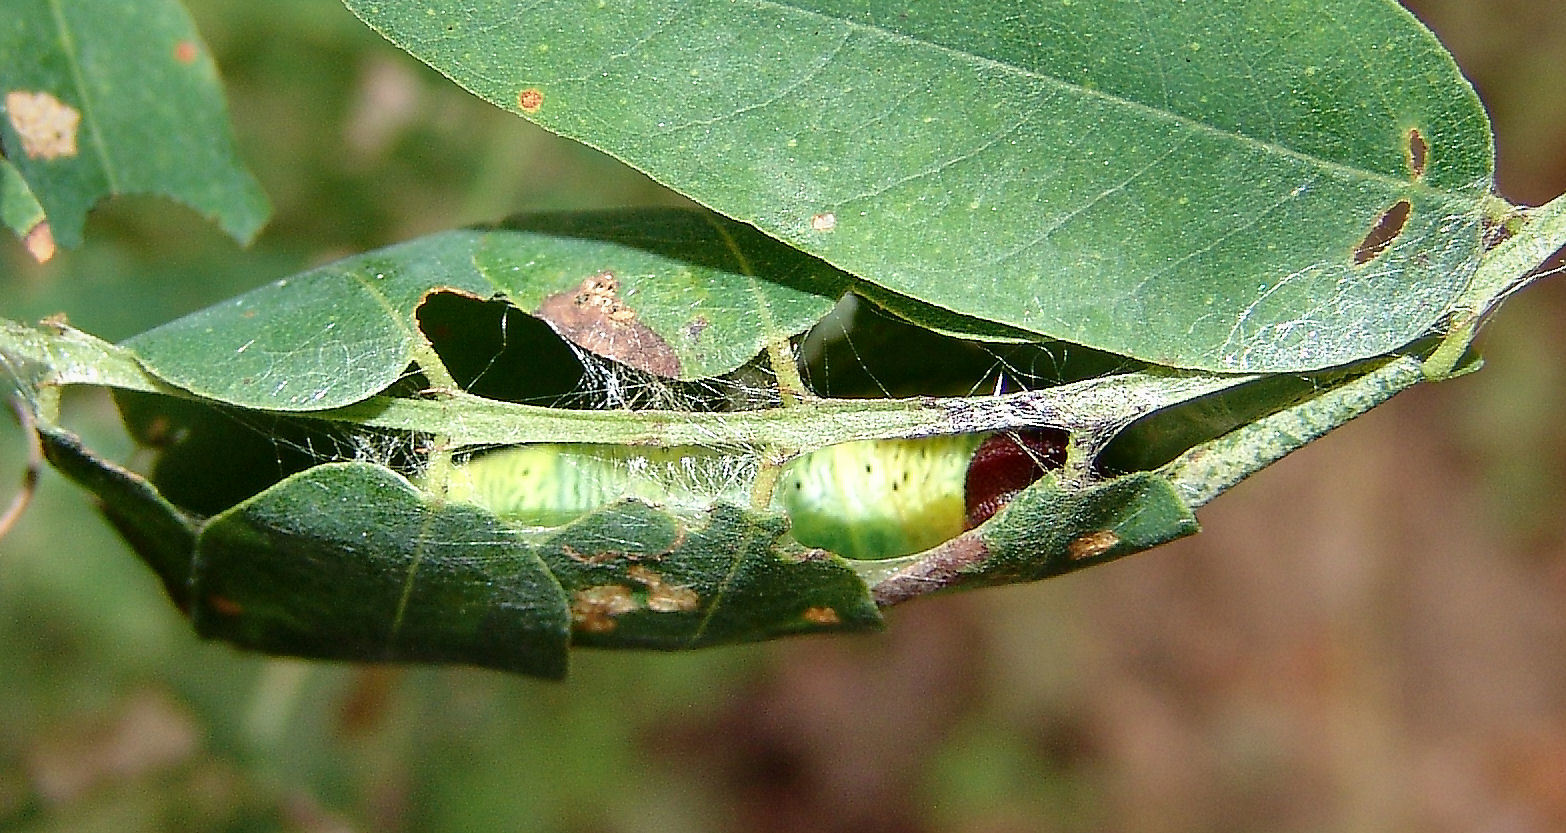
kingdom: Animalia
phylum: Arthropoda
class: Insecta
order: Lepidoptera
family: Hesperiidae
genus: Epargyreus
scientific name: Epargyreus clarus
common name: Silver-spotted skipper
